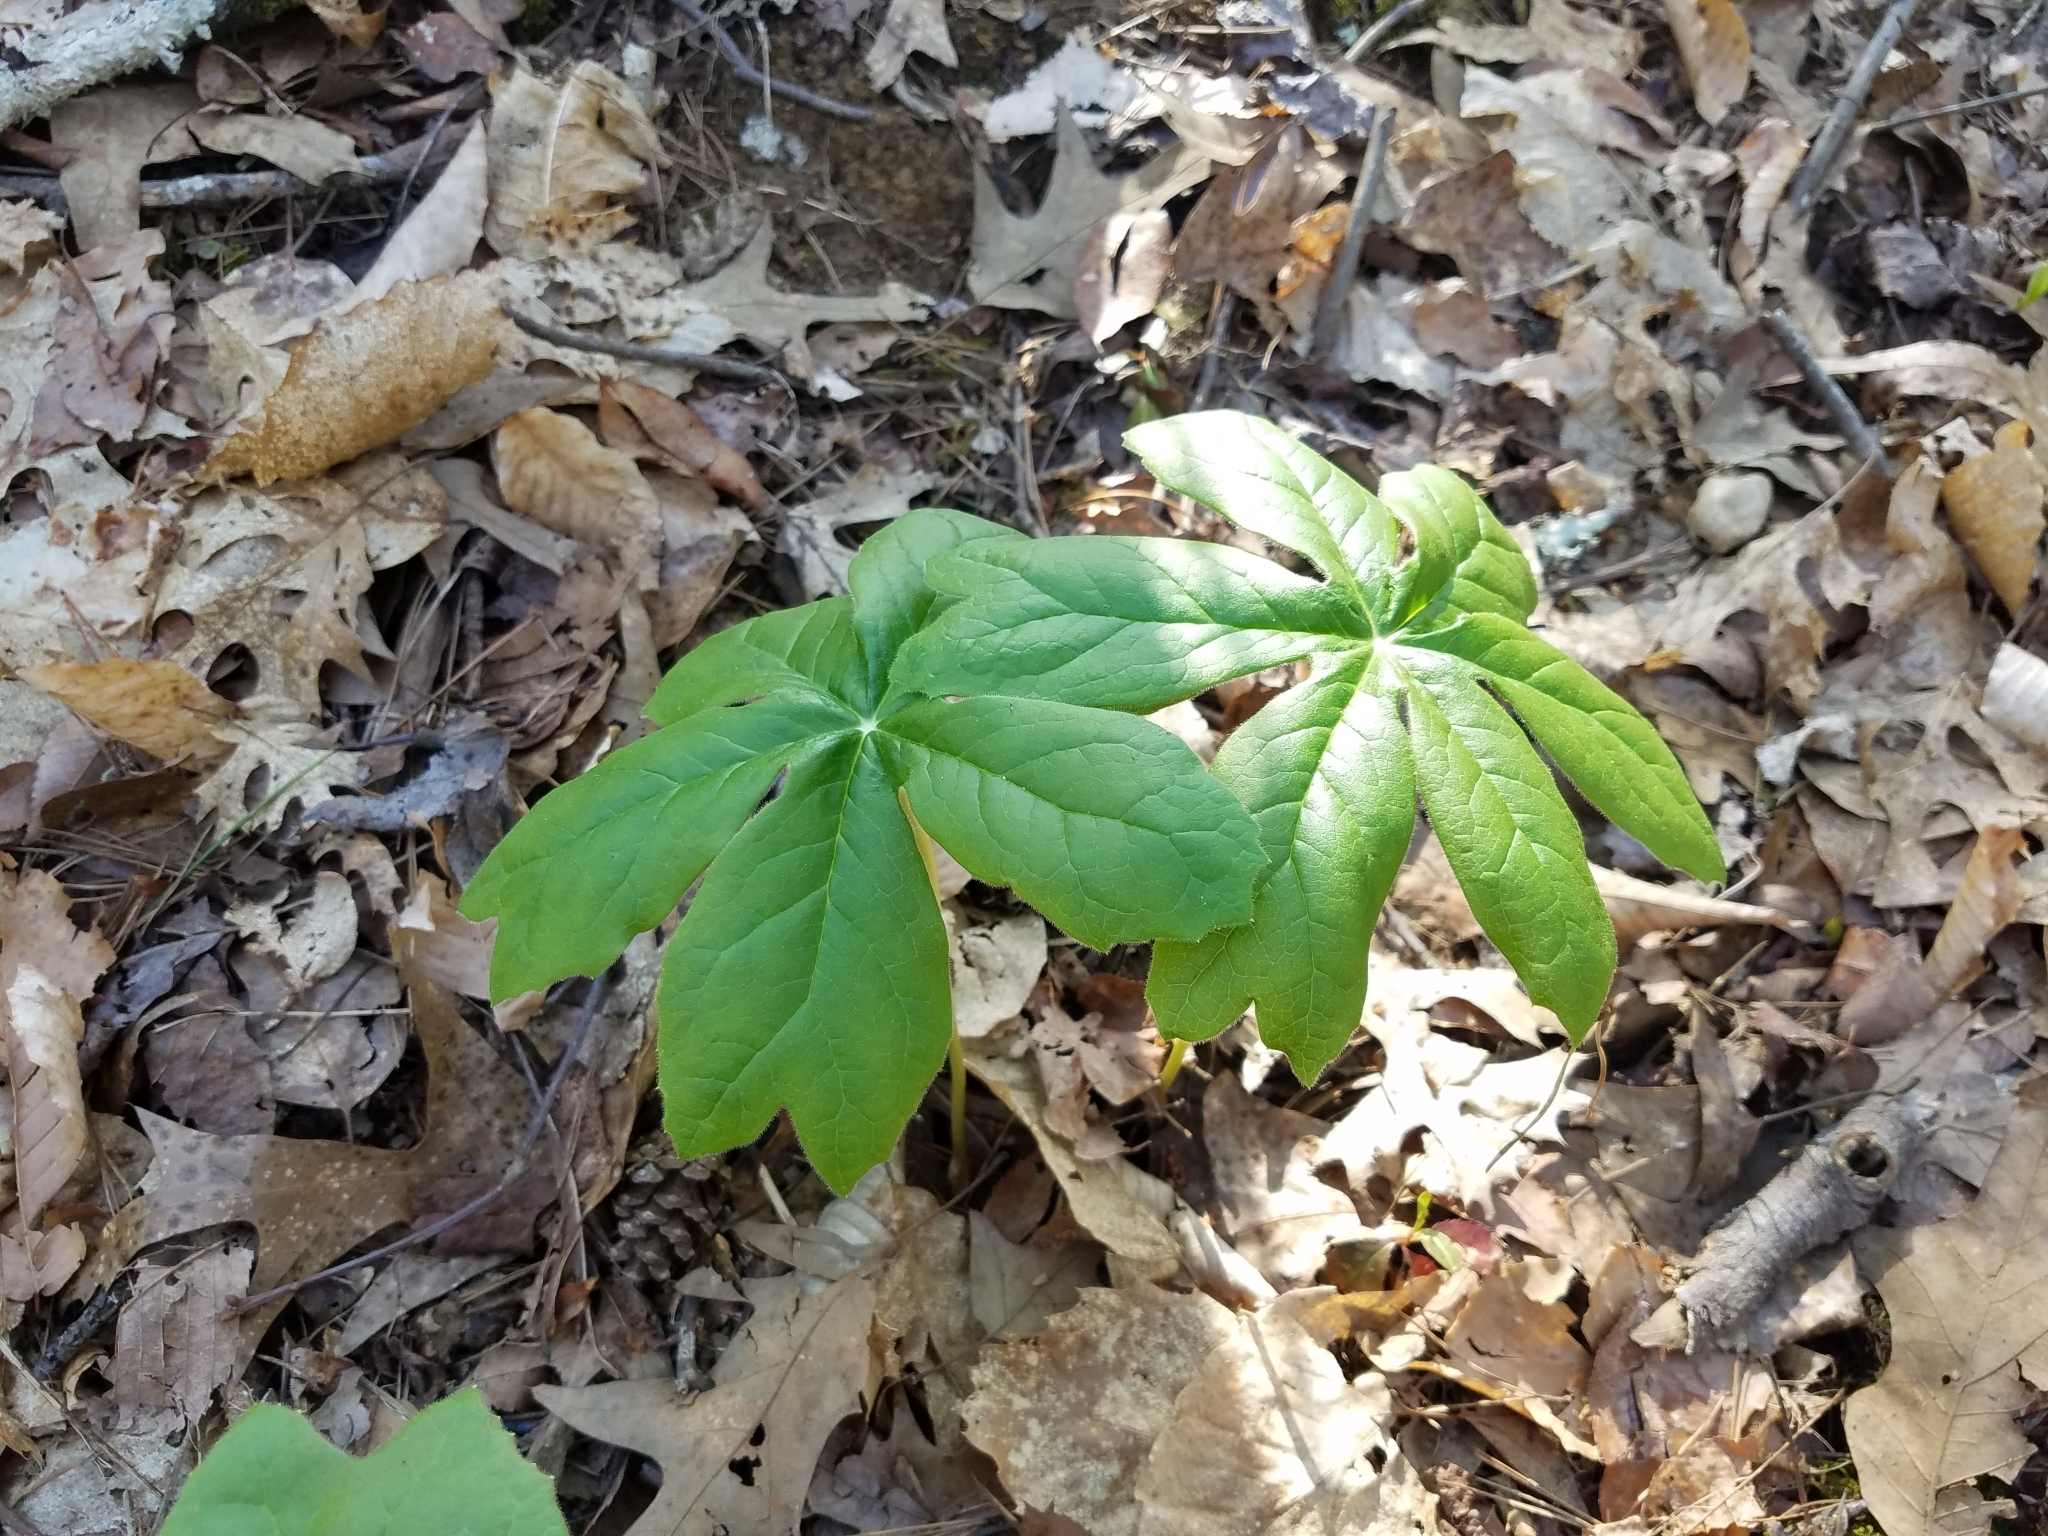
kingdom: Plantae
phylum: Tracheophyta
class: Magnoliopsida
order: Ranunculales
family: Berberidaceae
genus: Podophyllum
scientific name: Podophyllum peltatum
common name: Wild mandrake
